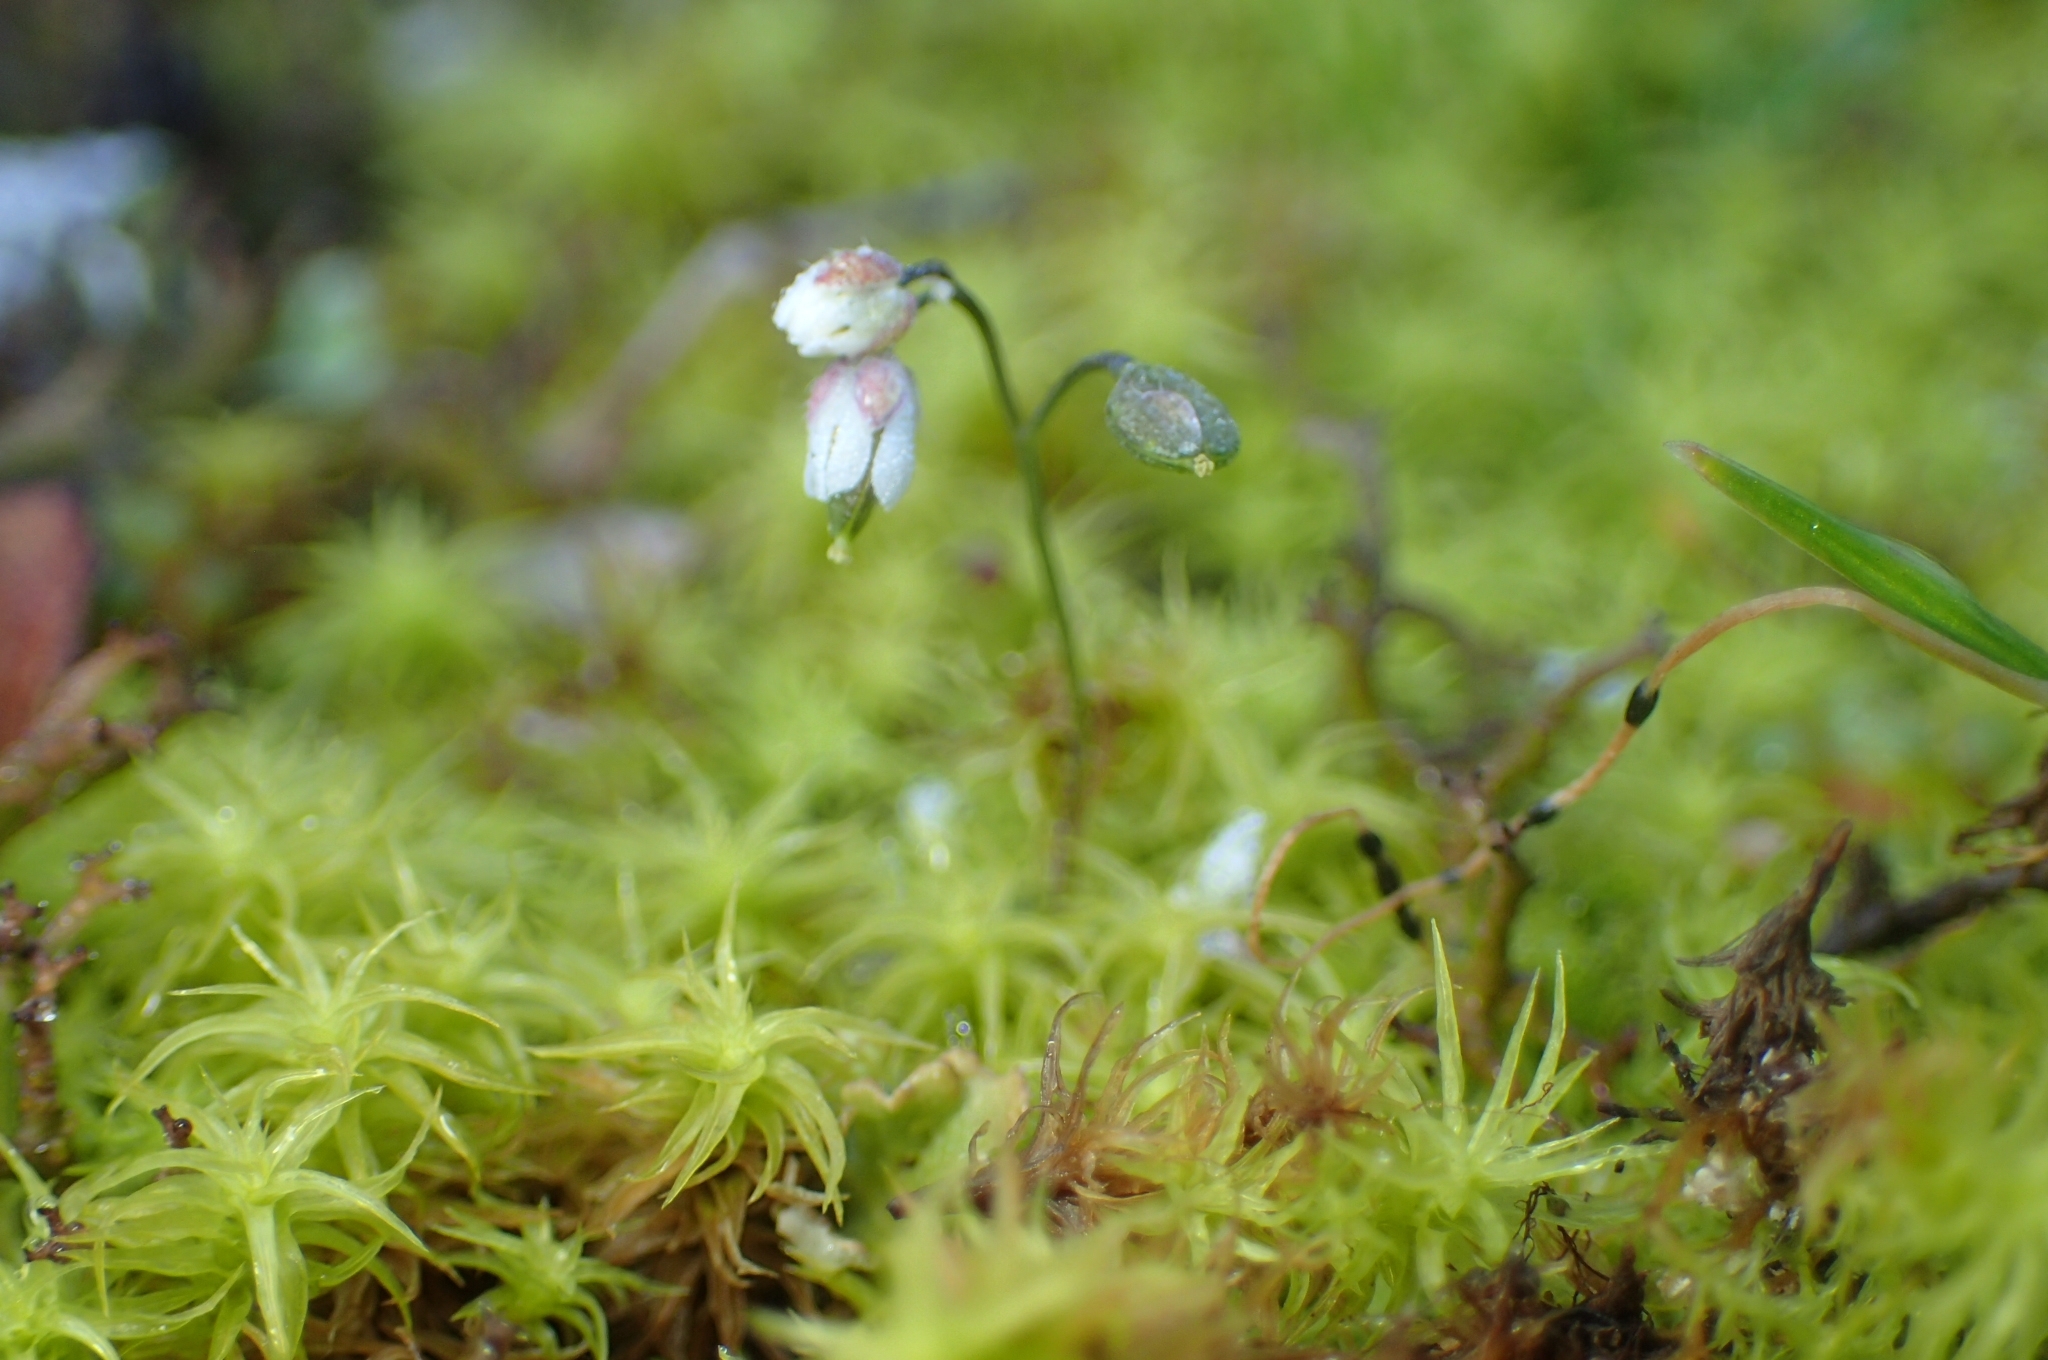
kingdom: Plantae
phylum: Tracheophyta
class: Magnoliopsida
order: Brassicales
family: Brassicaceae
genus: Draba
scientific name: Draba verna
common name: Spring draba
